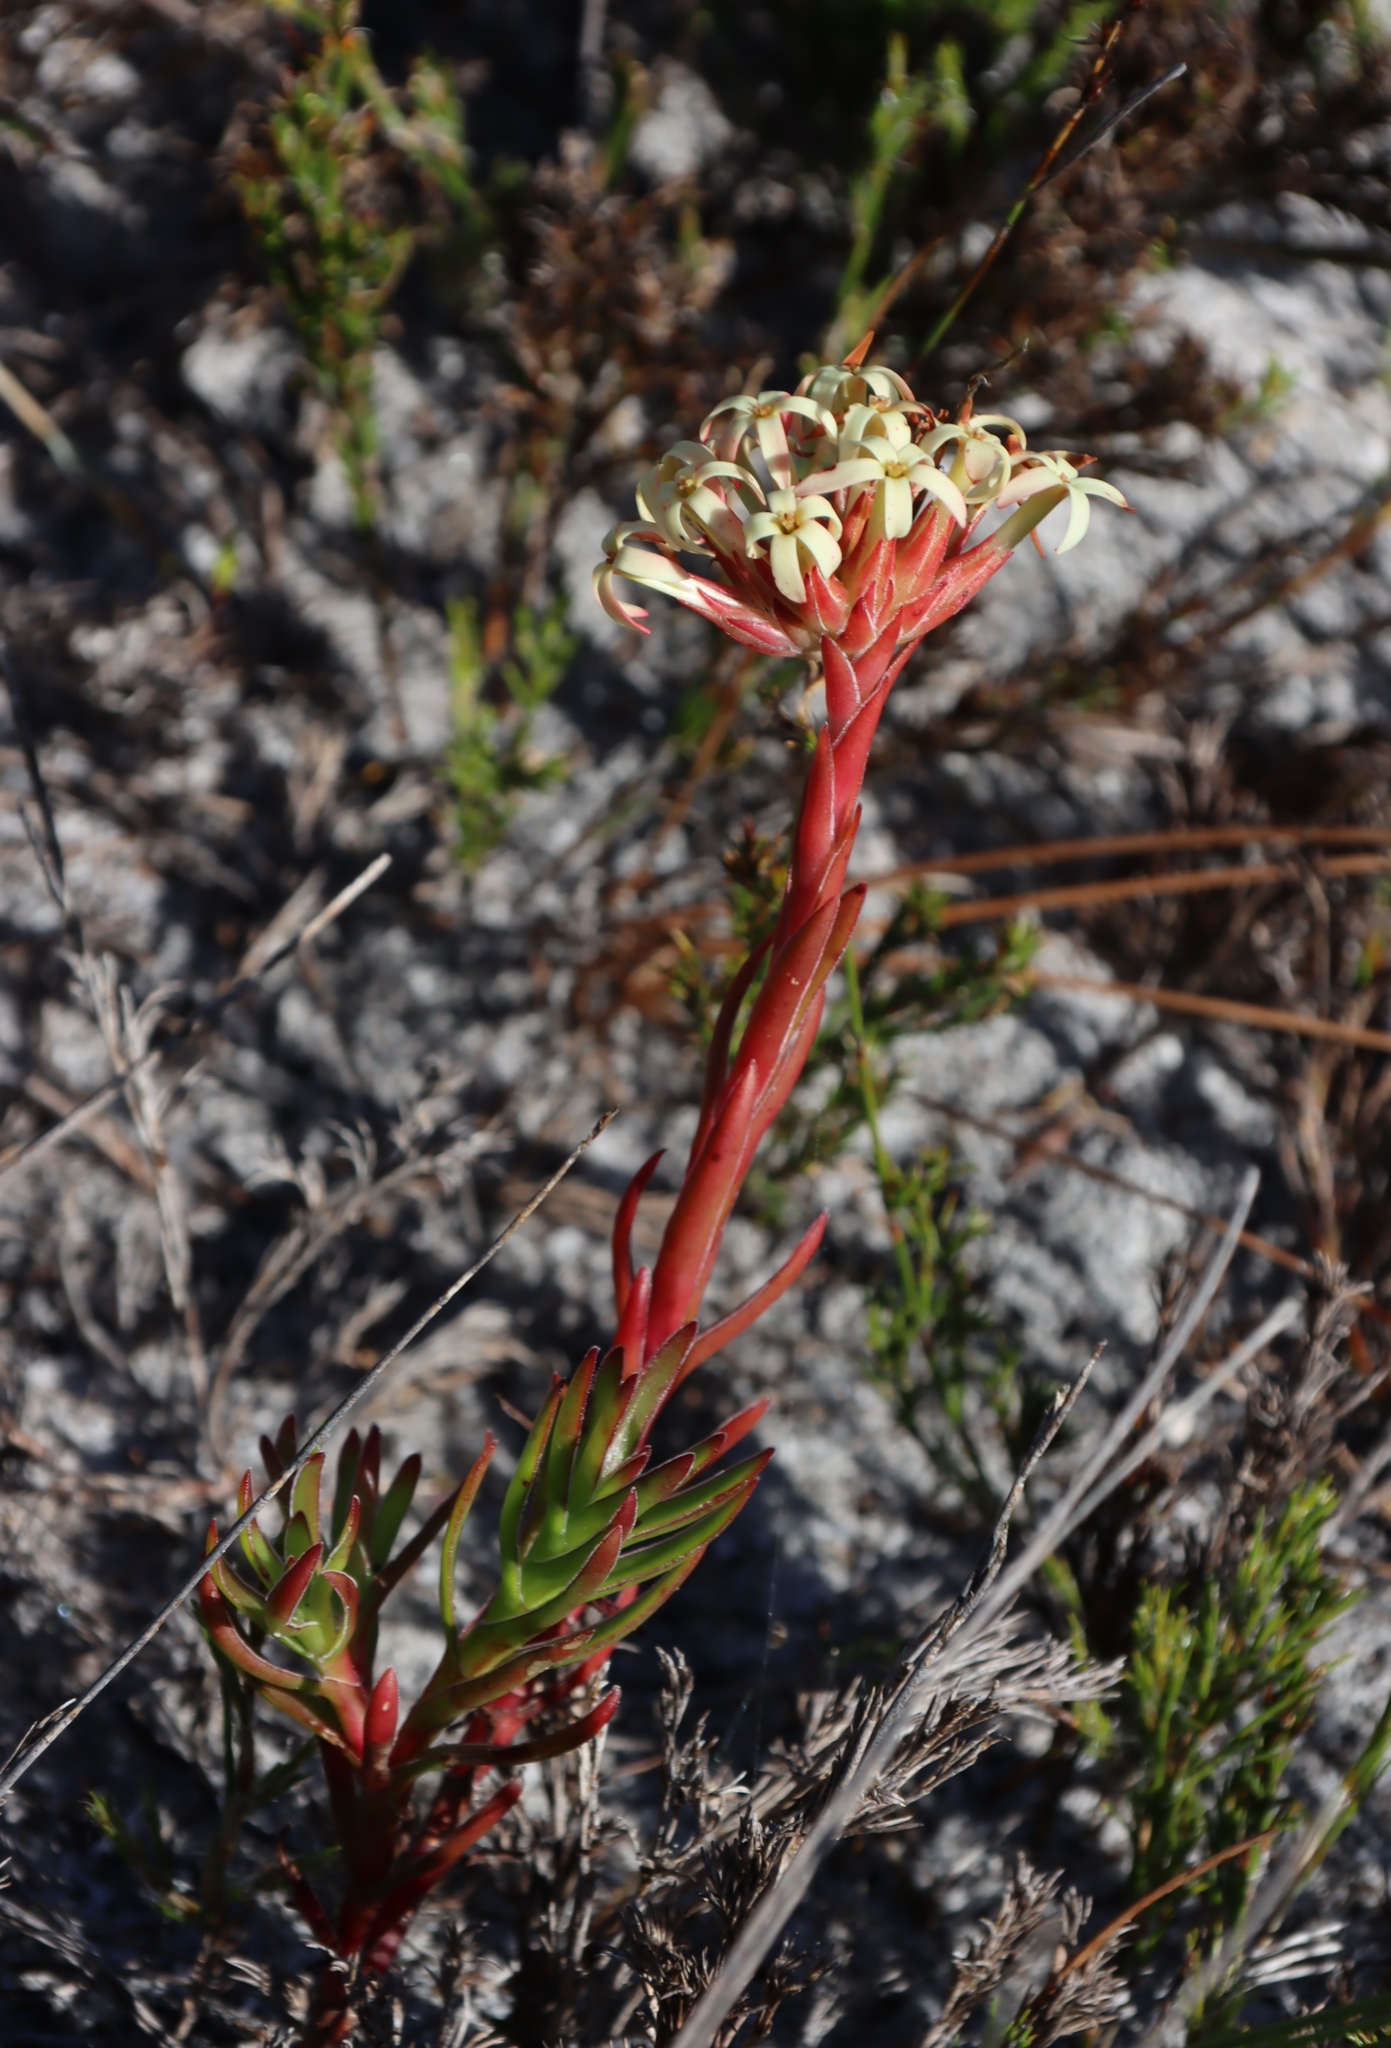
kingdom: Plantae
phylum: Tracheophyta
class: Magnoliopsida
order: Saxifragales
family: Crassulaceae
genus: Crassula
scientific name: Crassula fascicularis
